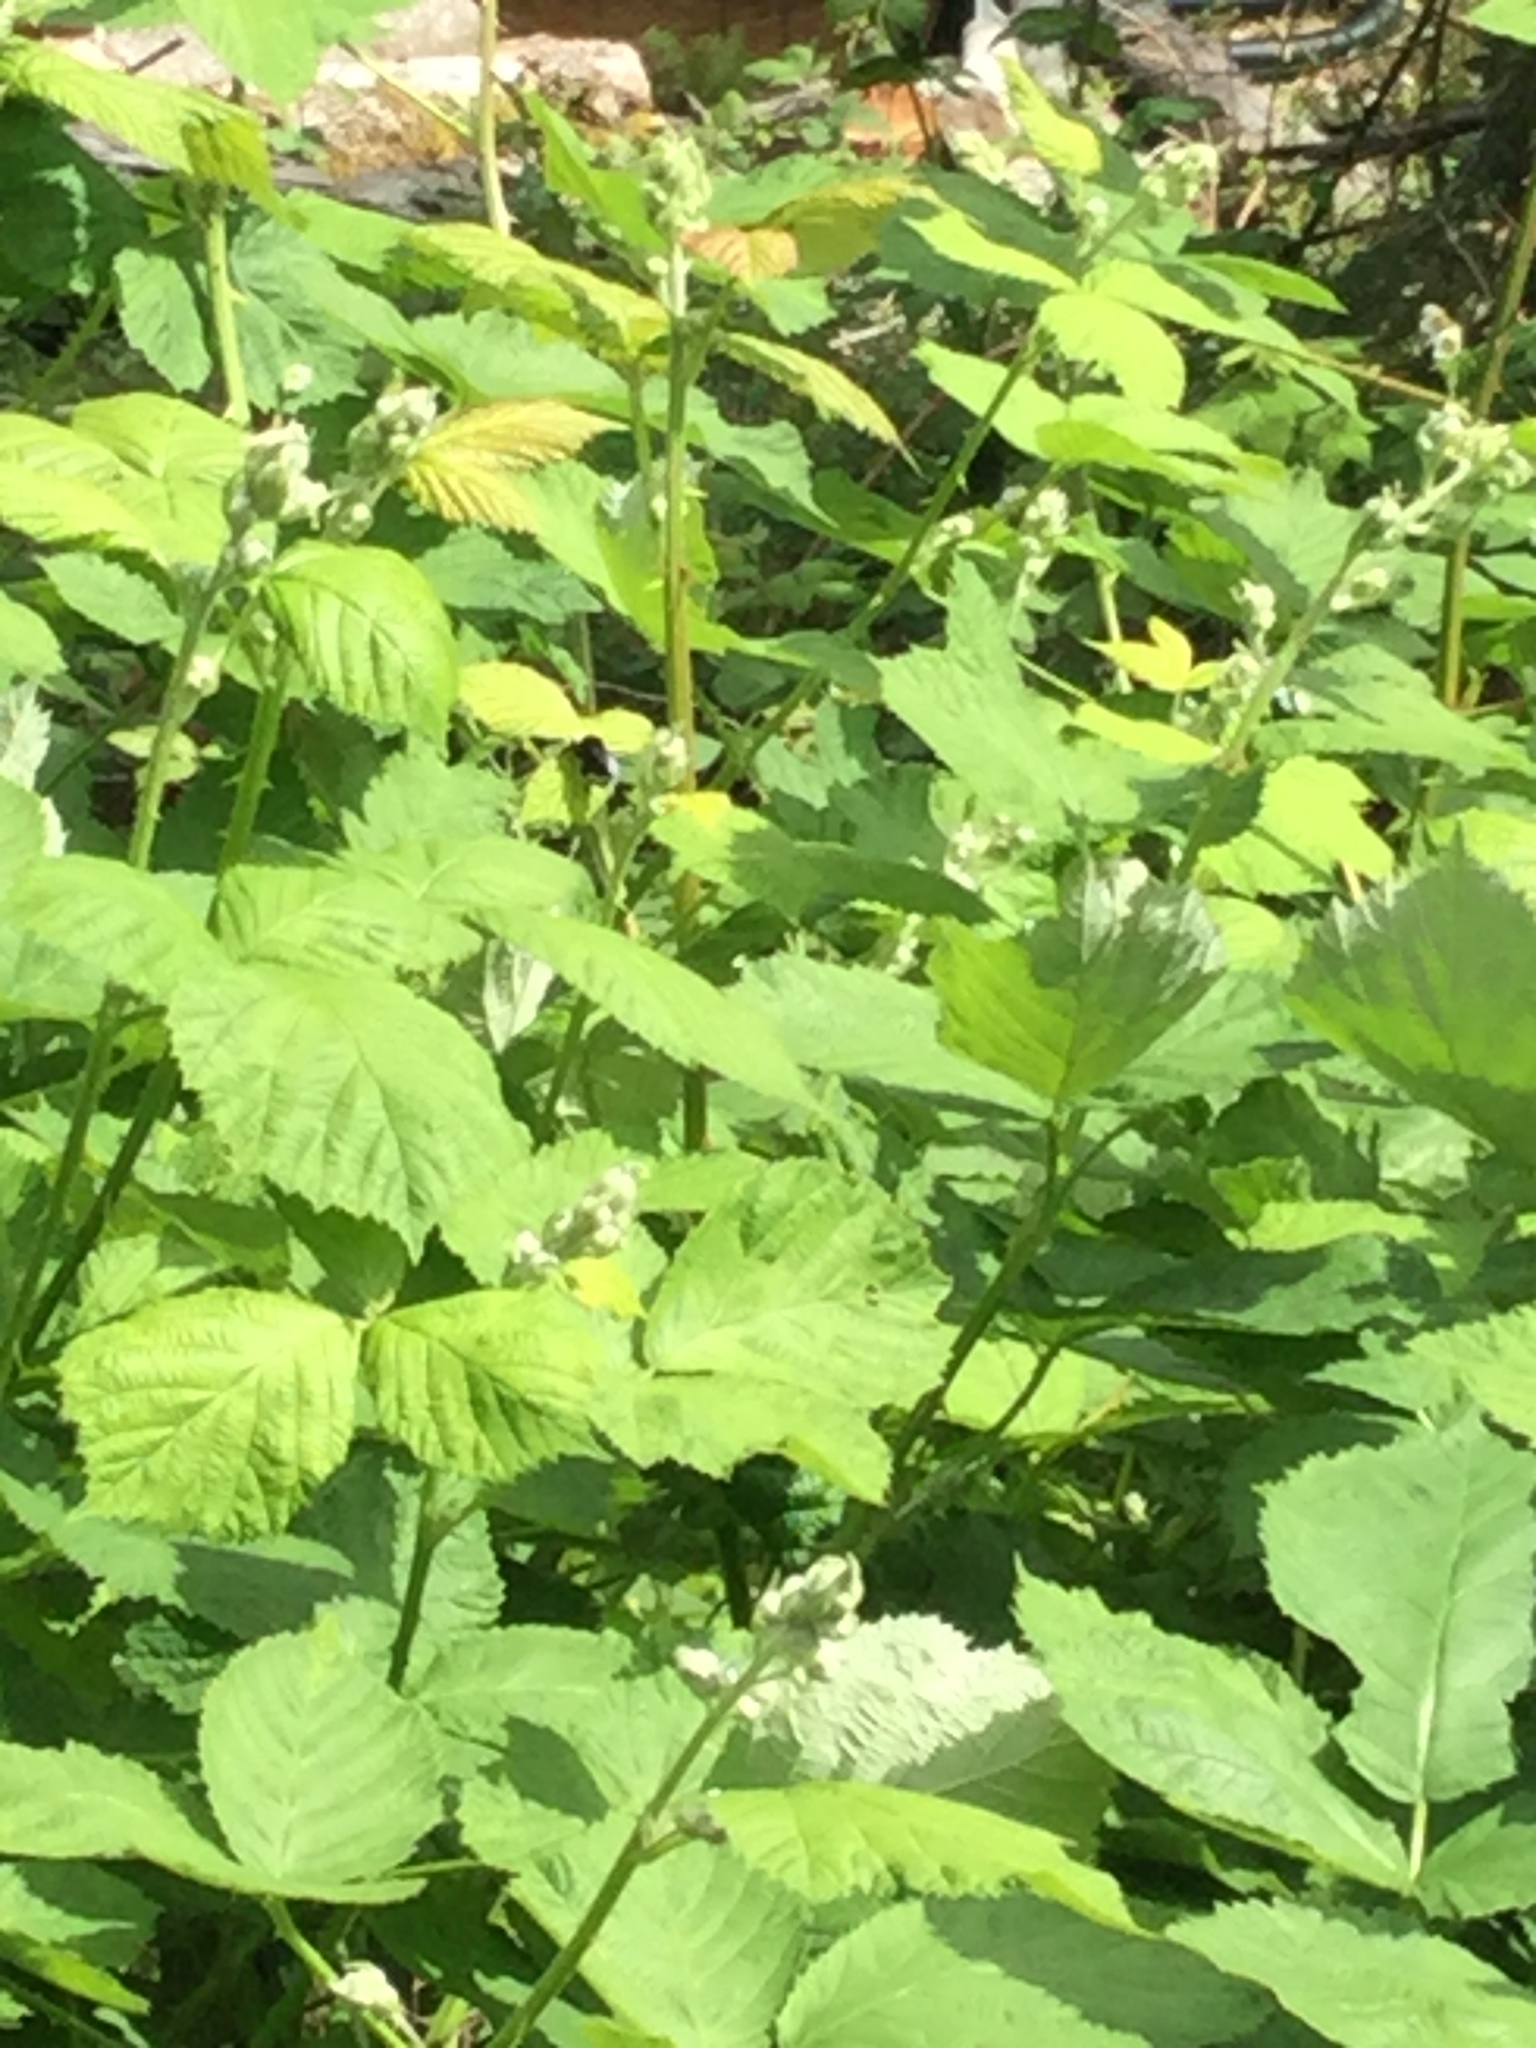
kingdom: Animalia
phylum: Arthropoda
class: Insecta
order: Hymenoptera
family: Apidae
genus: Bombus
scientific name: Bombus vosnesenskii
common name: Vosnesensky bumble bee
